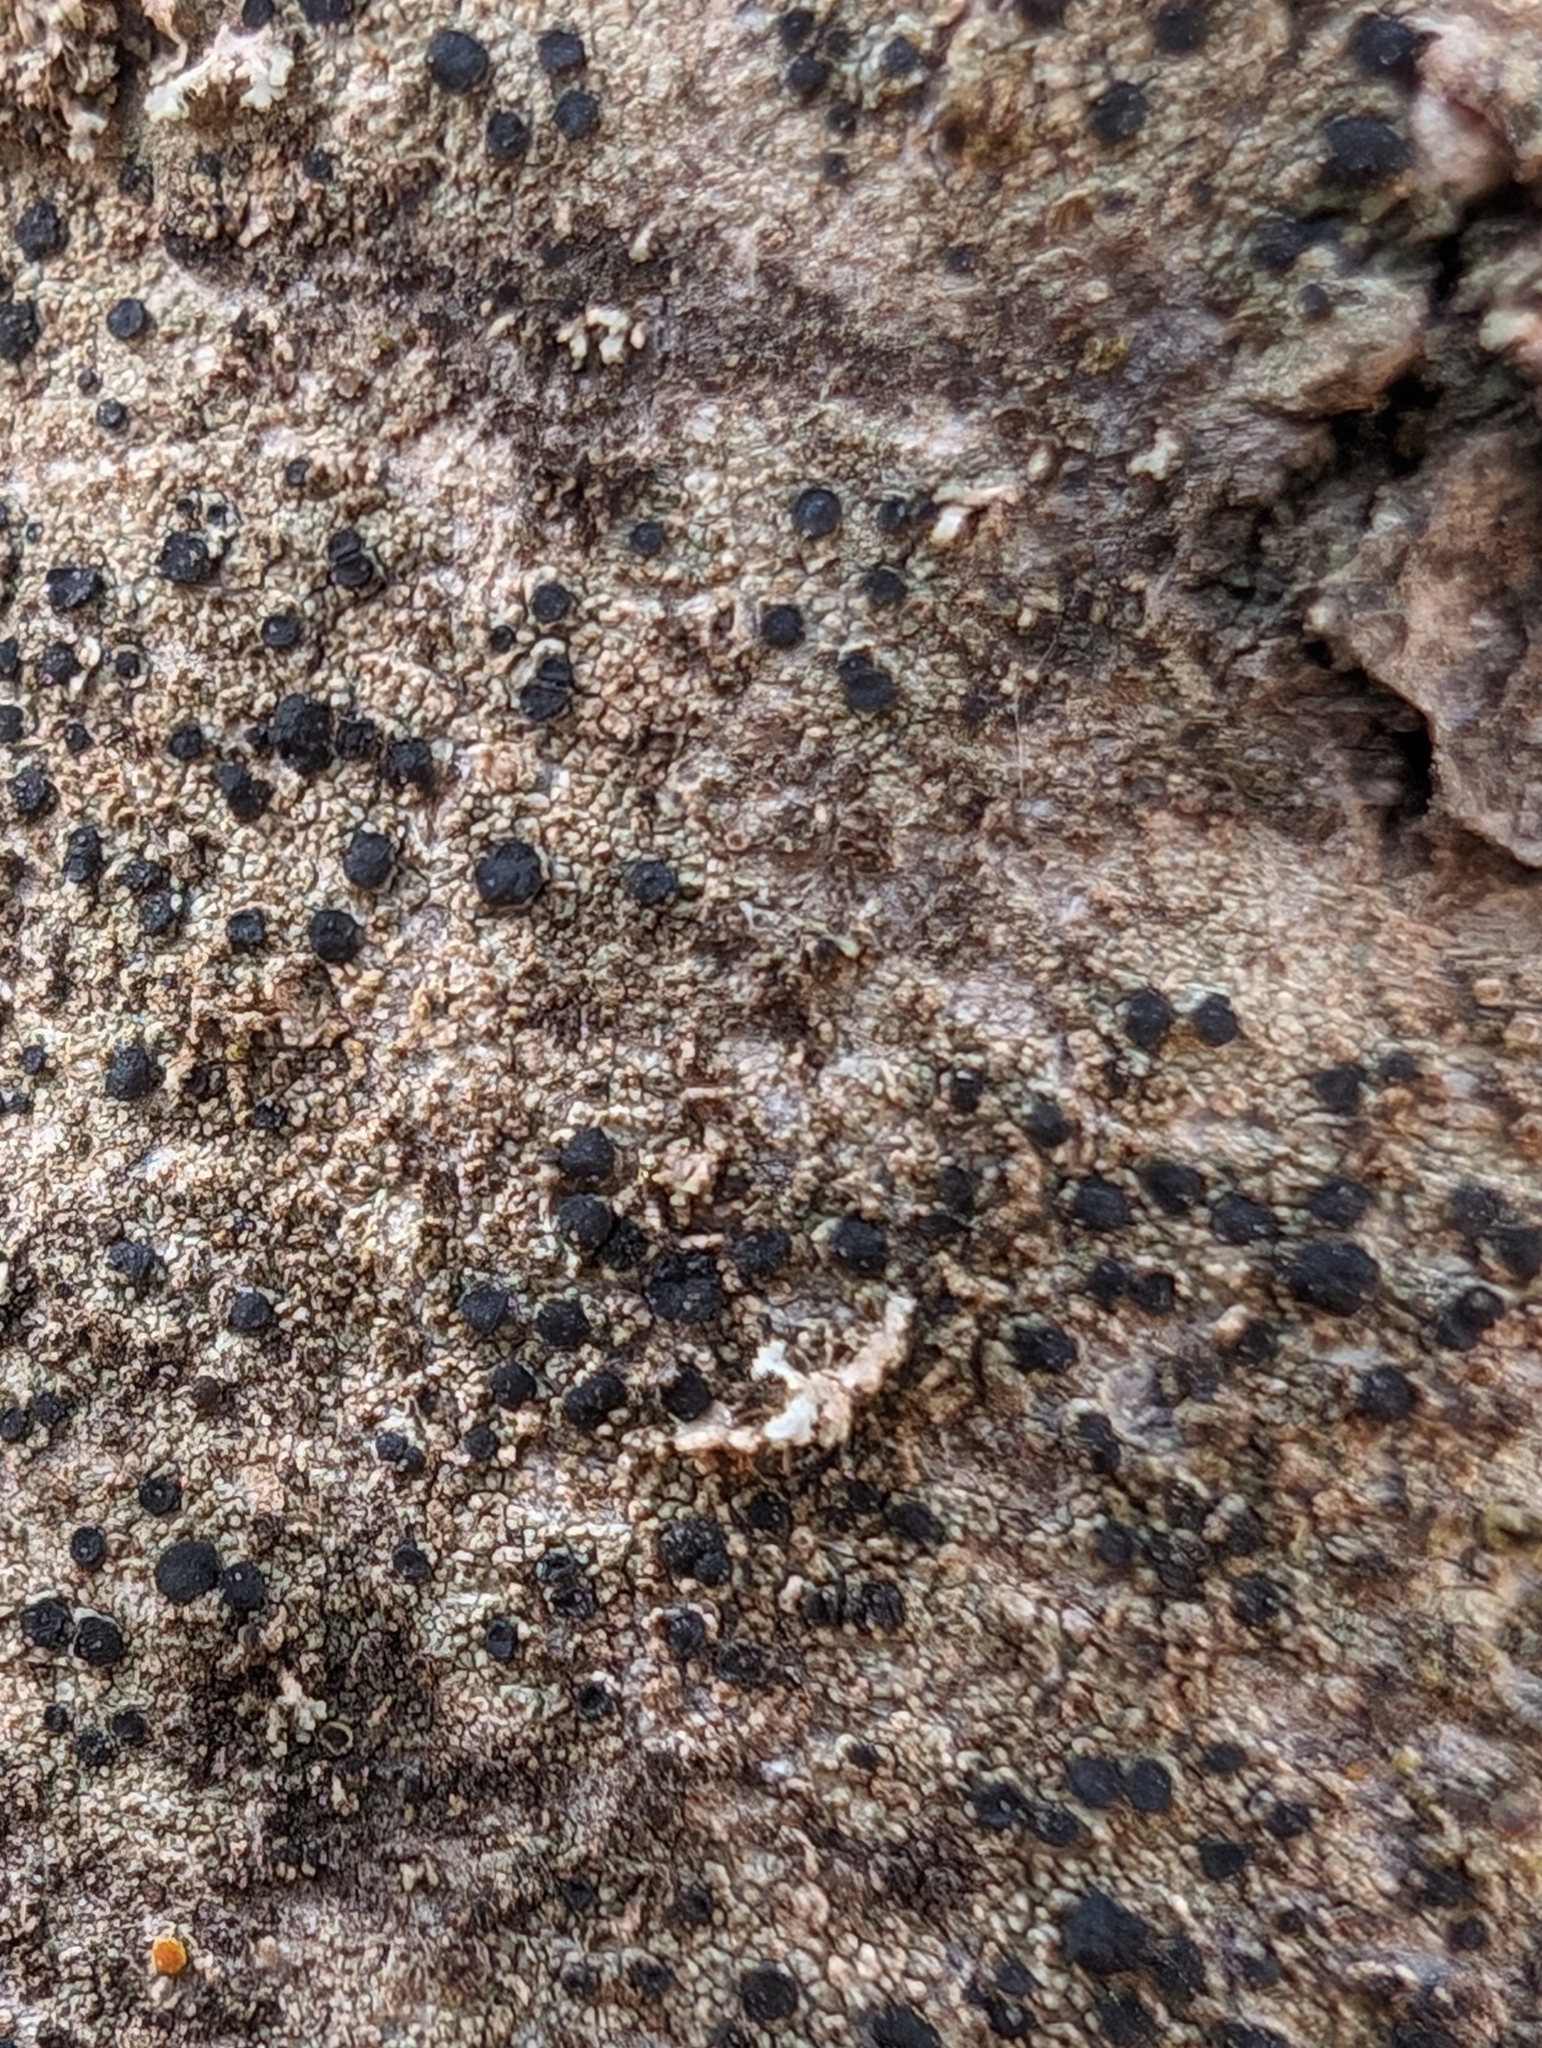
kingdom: Fungi
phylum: Ascomycota
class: Lecanoromycetes
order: Caliciales
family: Caliciaceae
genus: Amandinea
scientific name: Amandinea punctata
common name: Tiny button lichen
